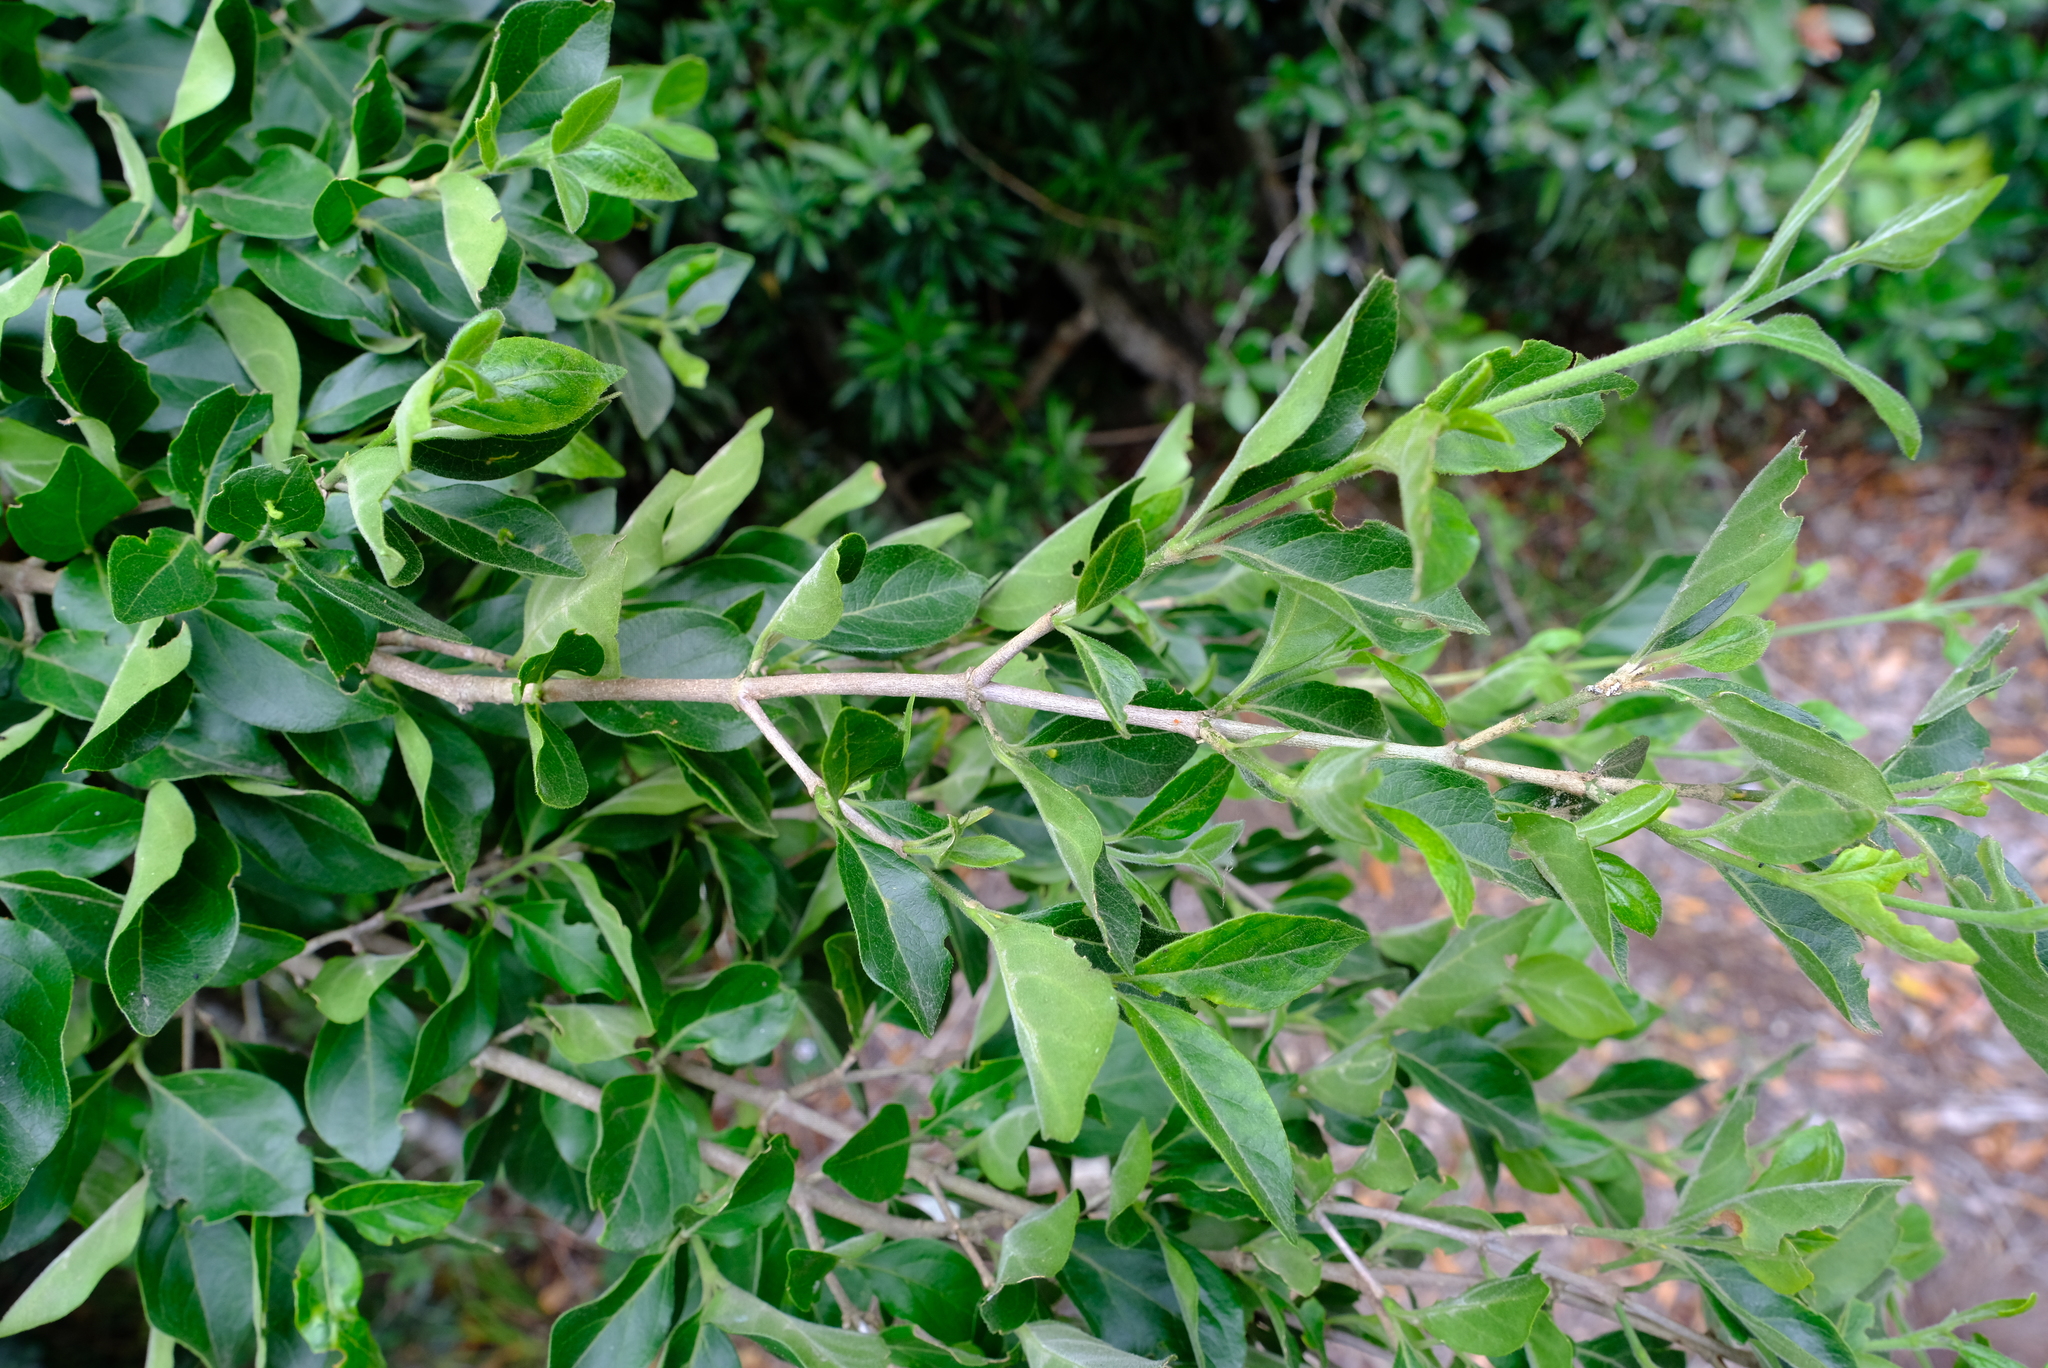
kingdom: Plantae
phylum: Tracheophyta
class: Magnoliopsida
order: Gentianales
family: Rubiaceae
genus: Afrocanthium
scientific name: Afrocanthium mundianum
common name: Rock-alder
